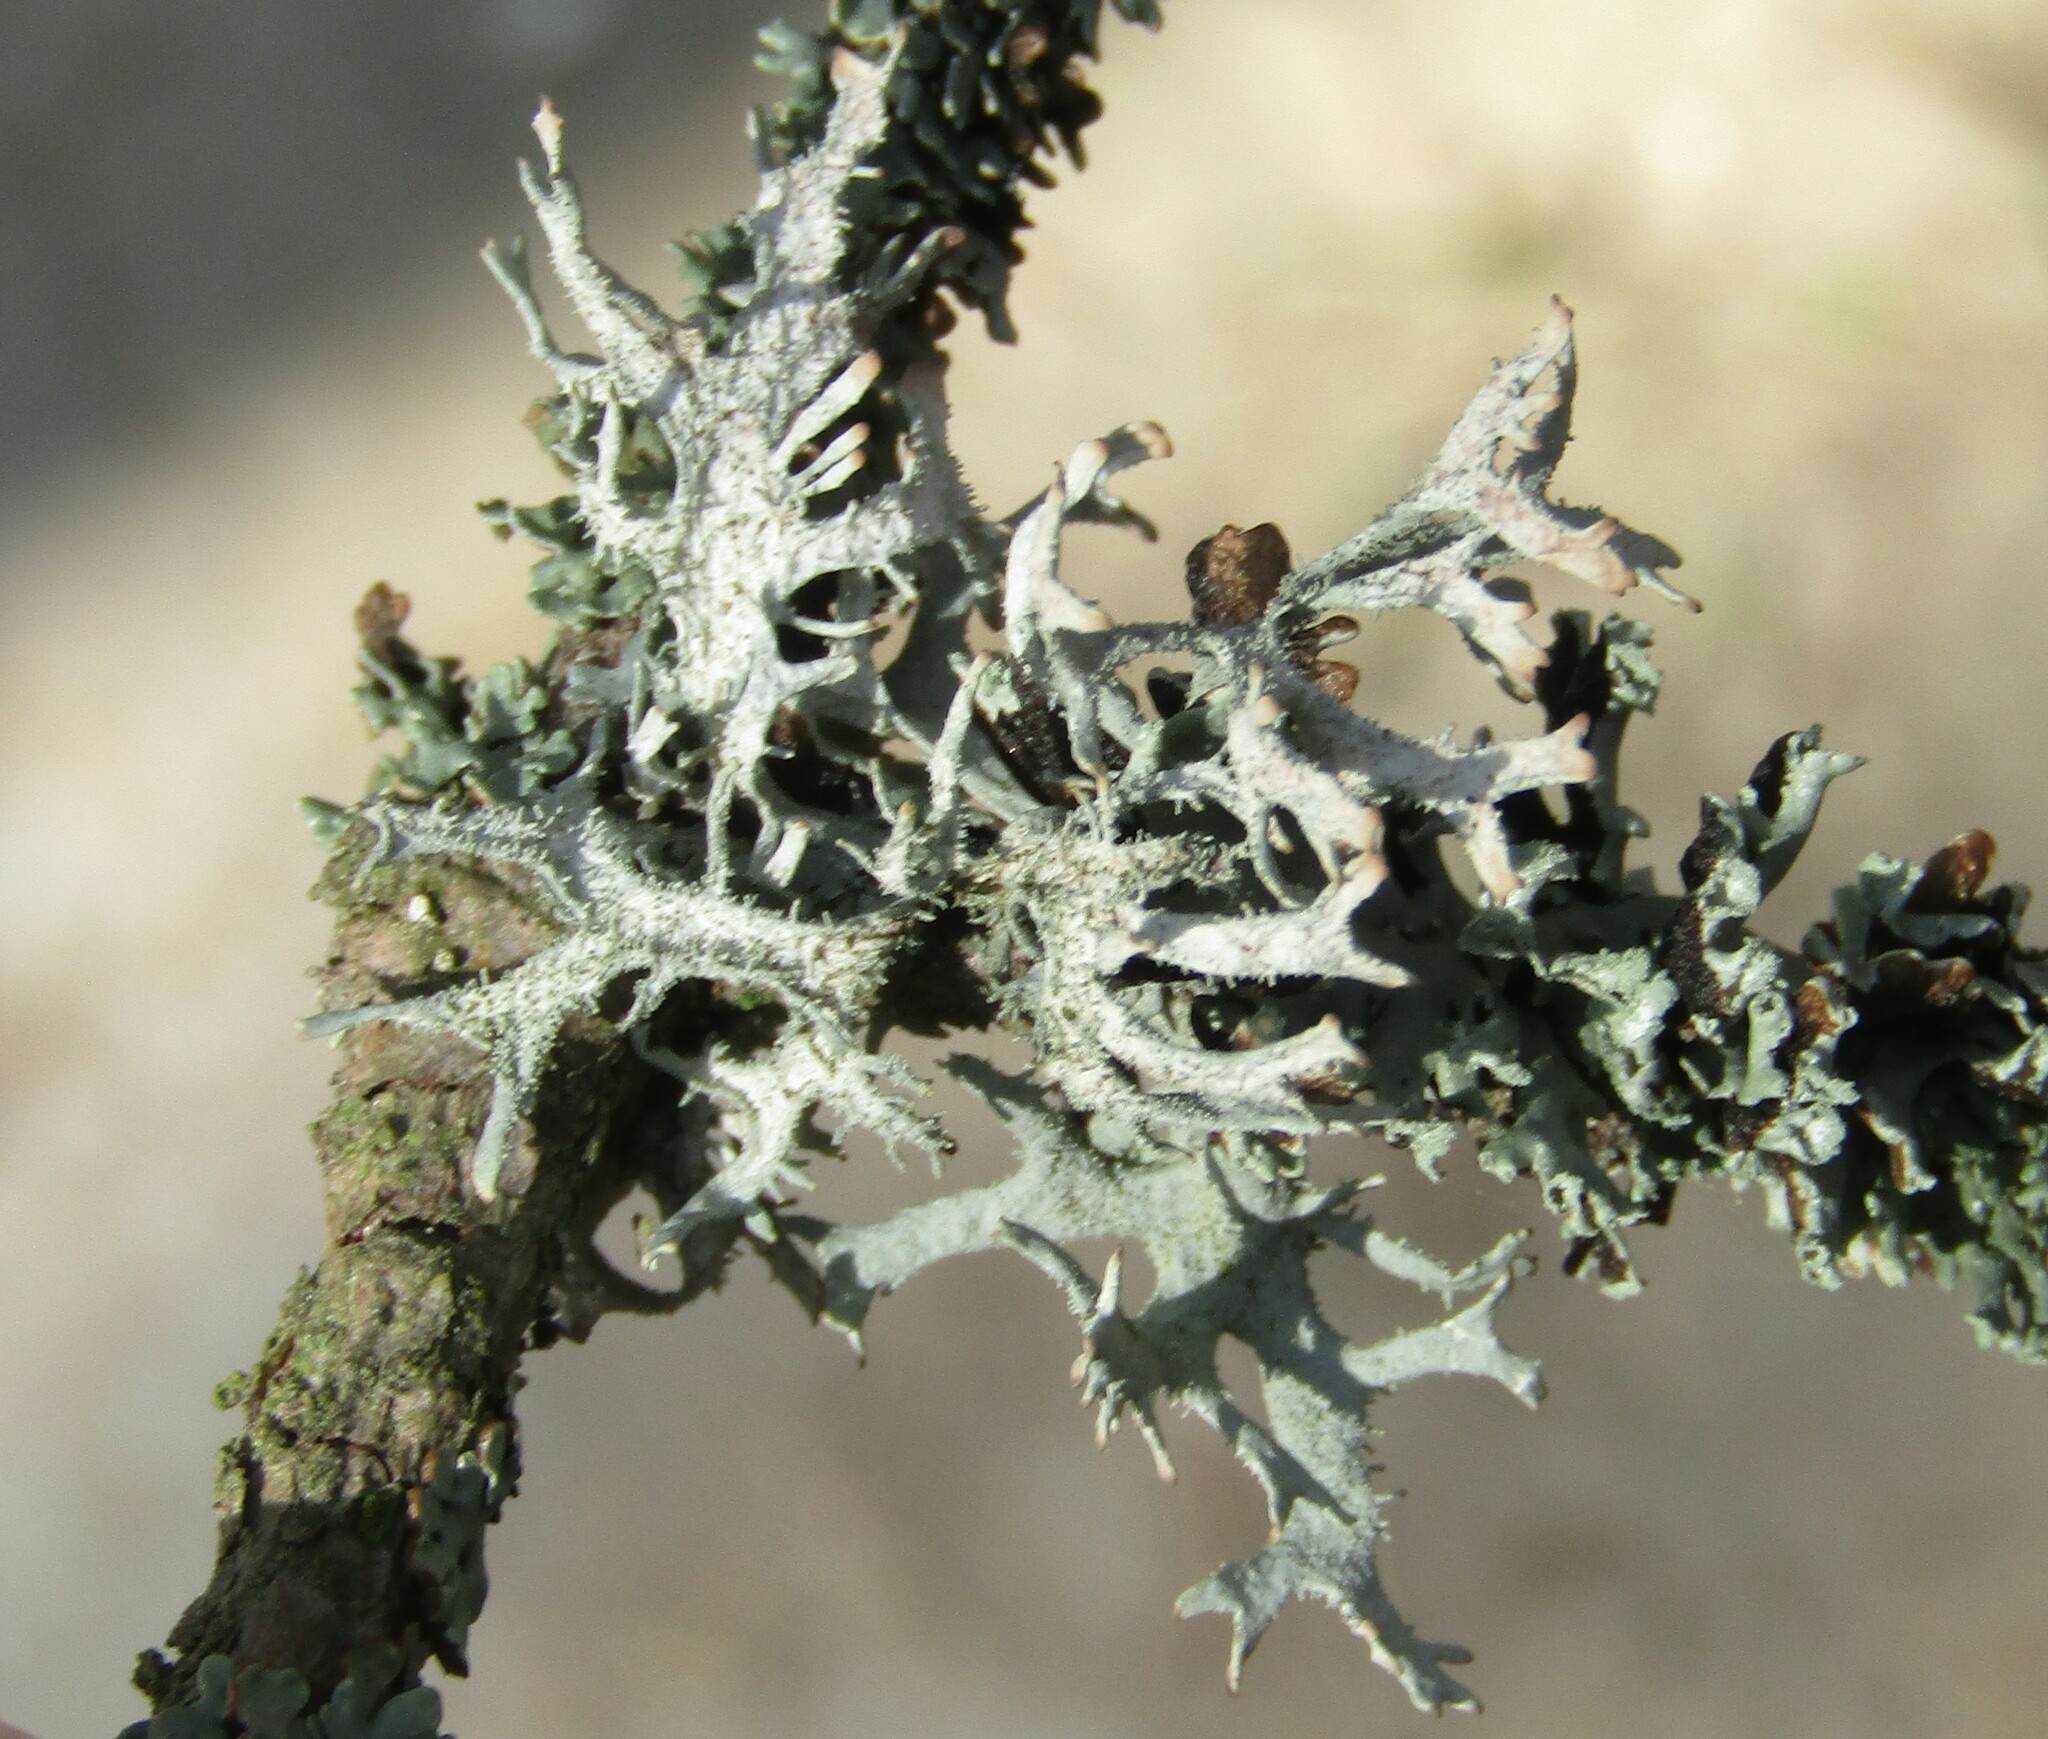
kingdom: Fungi
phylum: Ascomycota
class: Lecanoromycetes
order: Lecanorales
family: Parmeliaceae
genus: Pseudevernia
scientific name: Pseudevernia furfuracea
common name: Tree moss
